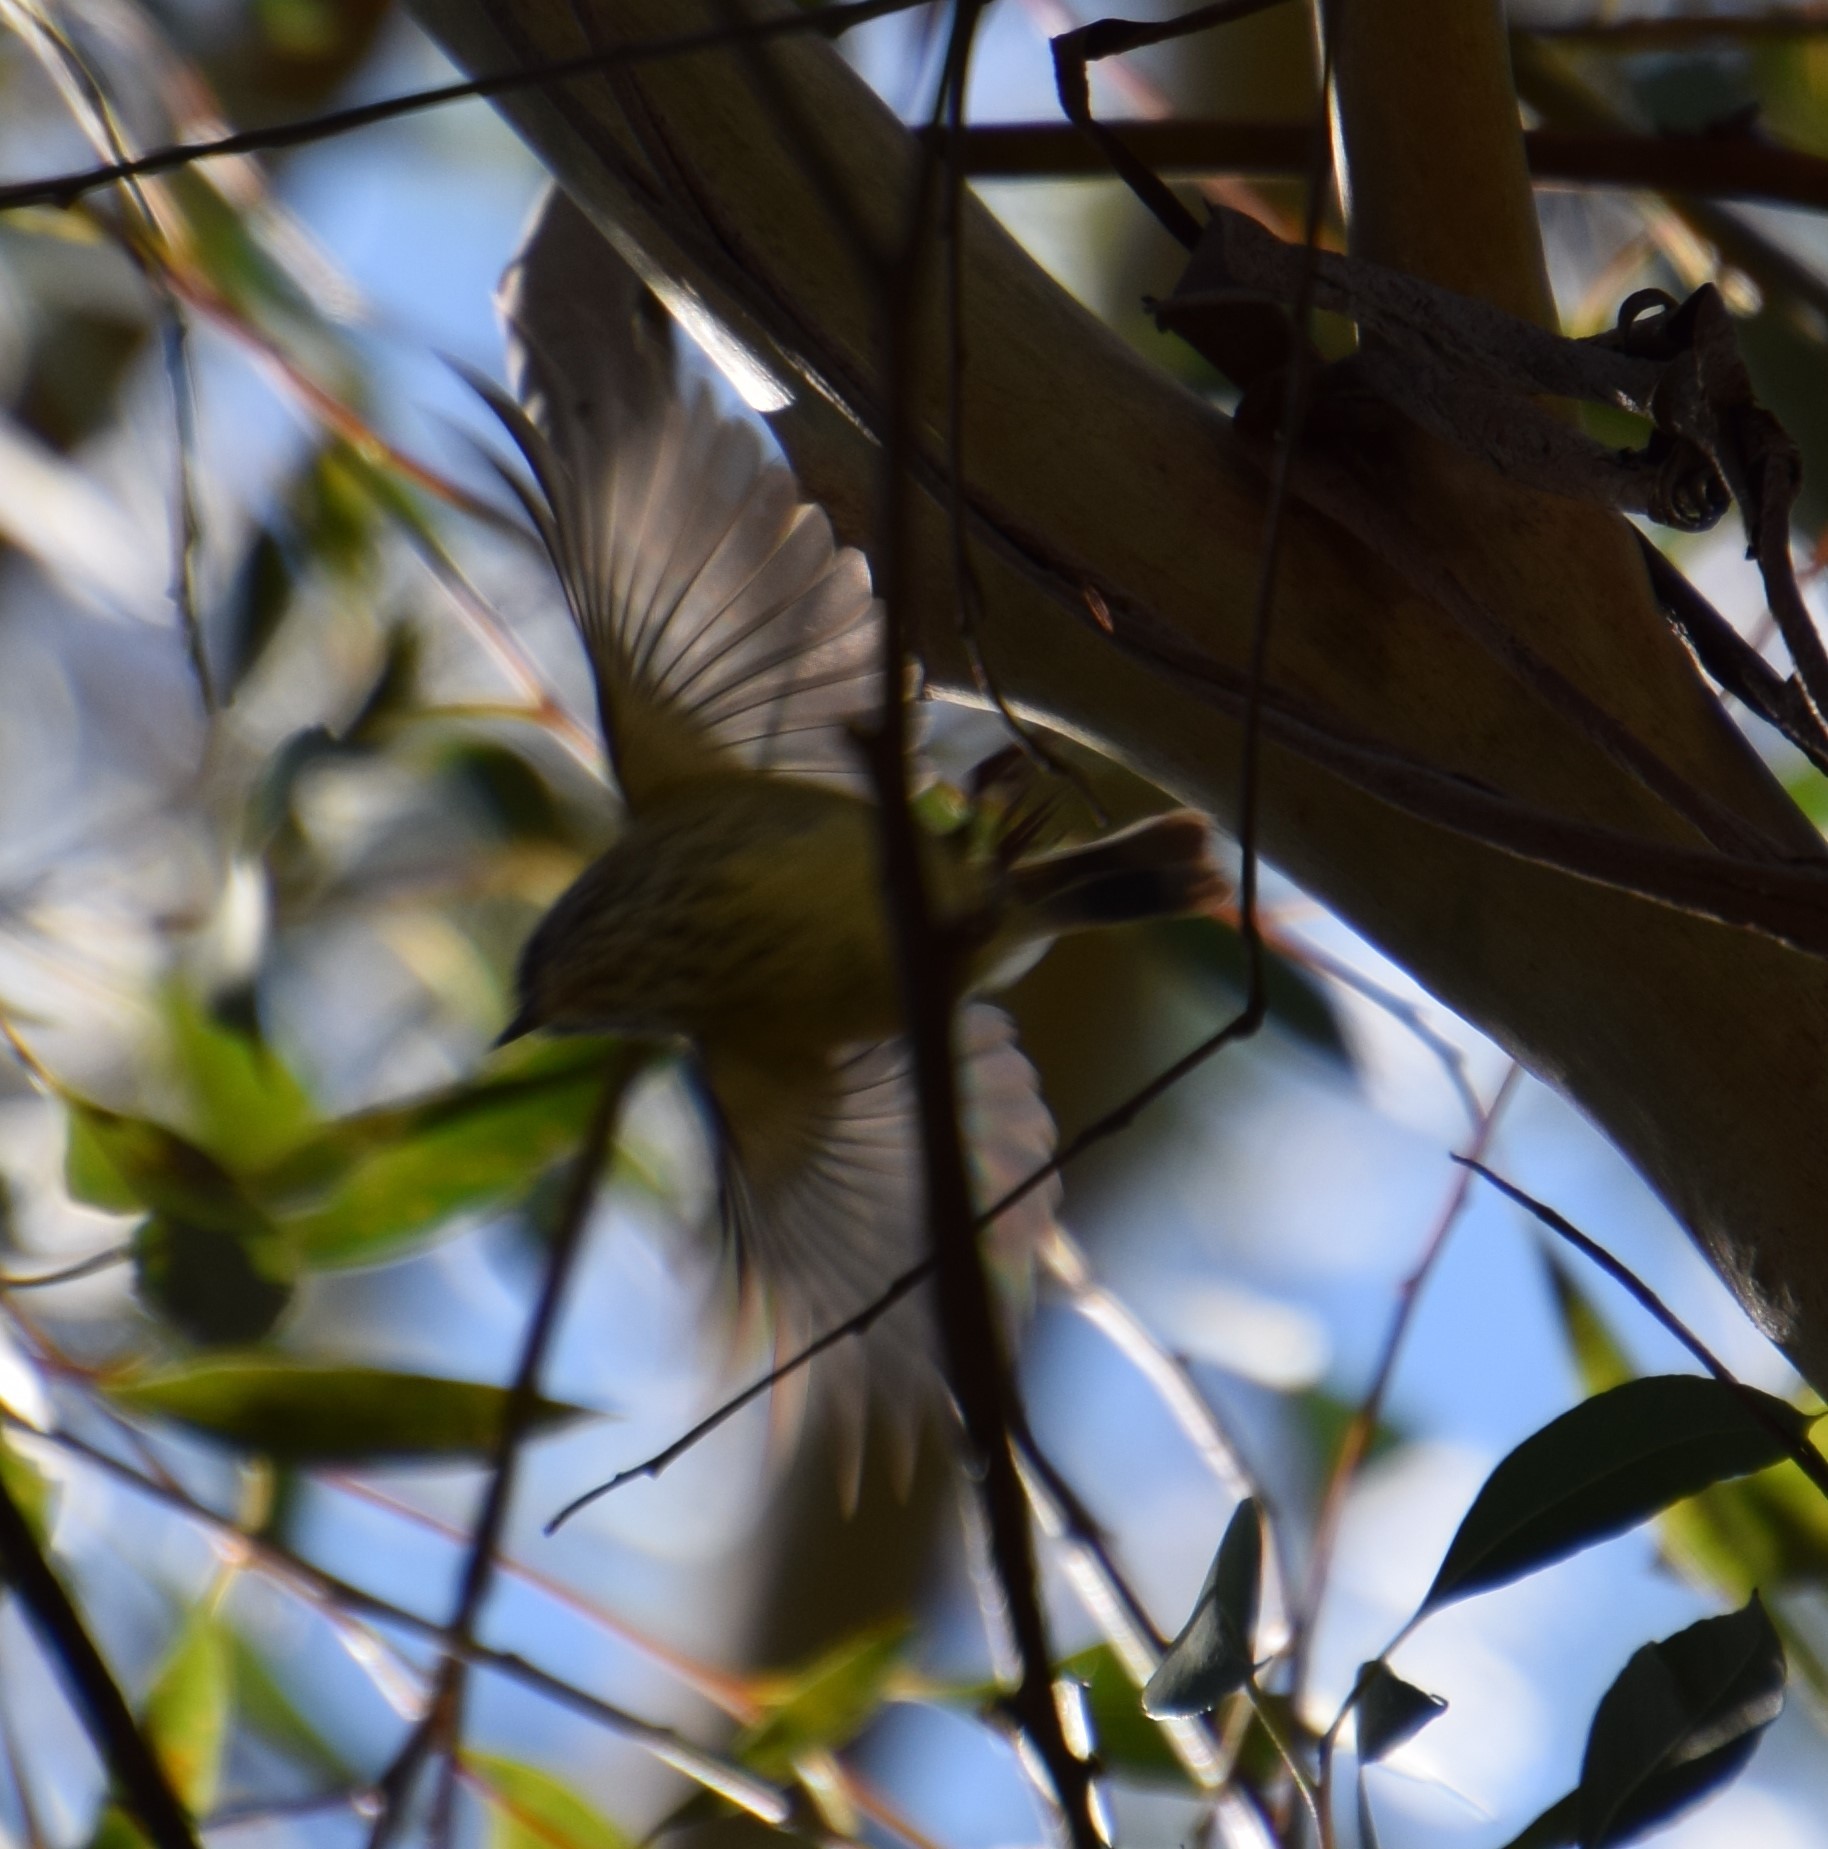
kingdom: Animalia
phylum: Chordata
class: Aves
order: Passeriformes
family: Acanthizidae
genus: Acanthiza
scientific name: Acanthiza lineata
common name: Striated thornbill
